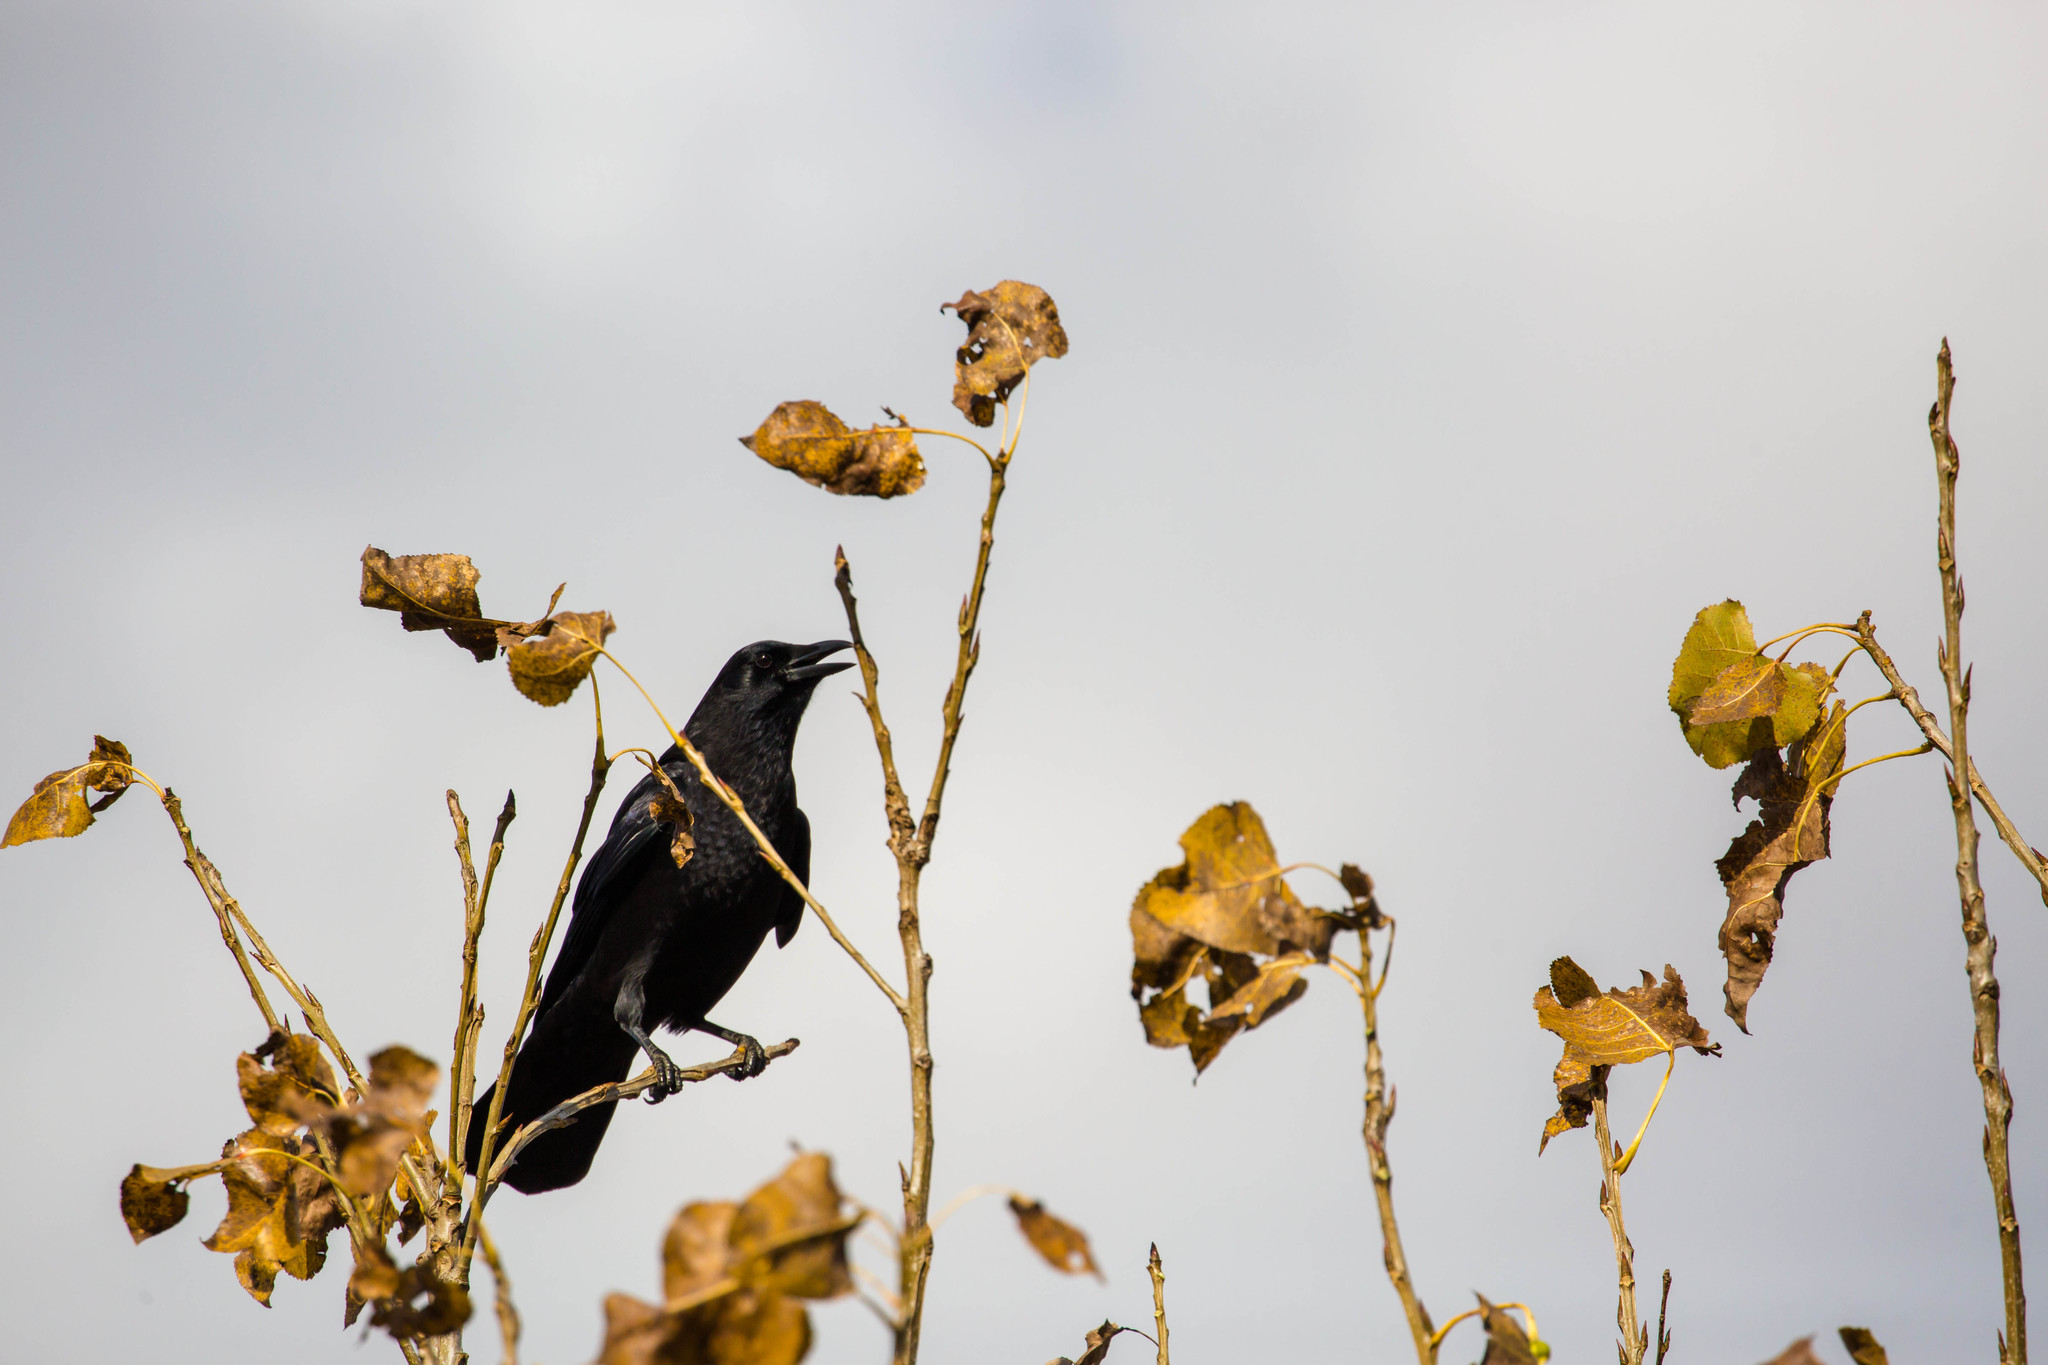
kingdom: Animalia
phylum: Chordata
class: Aves
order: Passeriformes
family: Corvidae
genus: Corvus
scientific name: Corvus brachyrhynchos
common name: American crow
